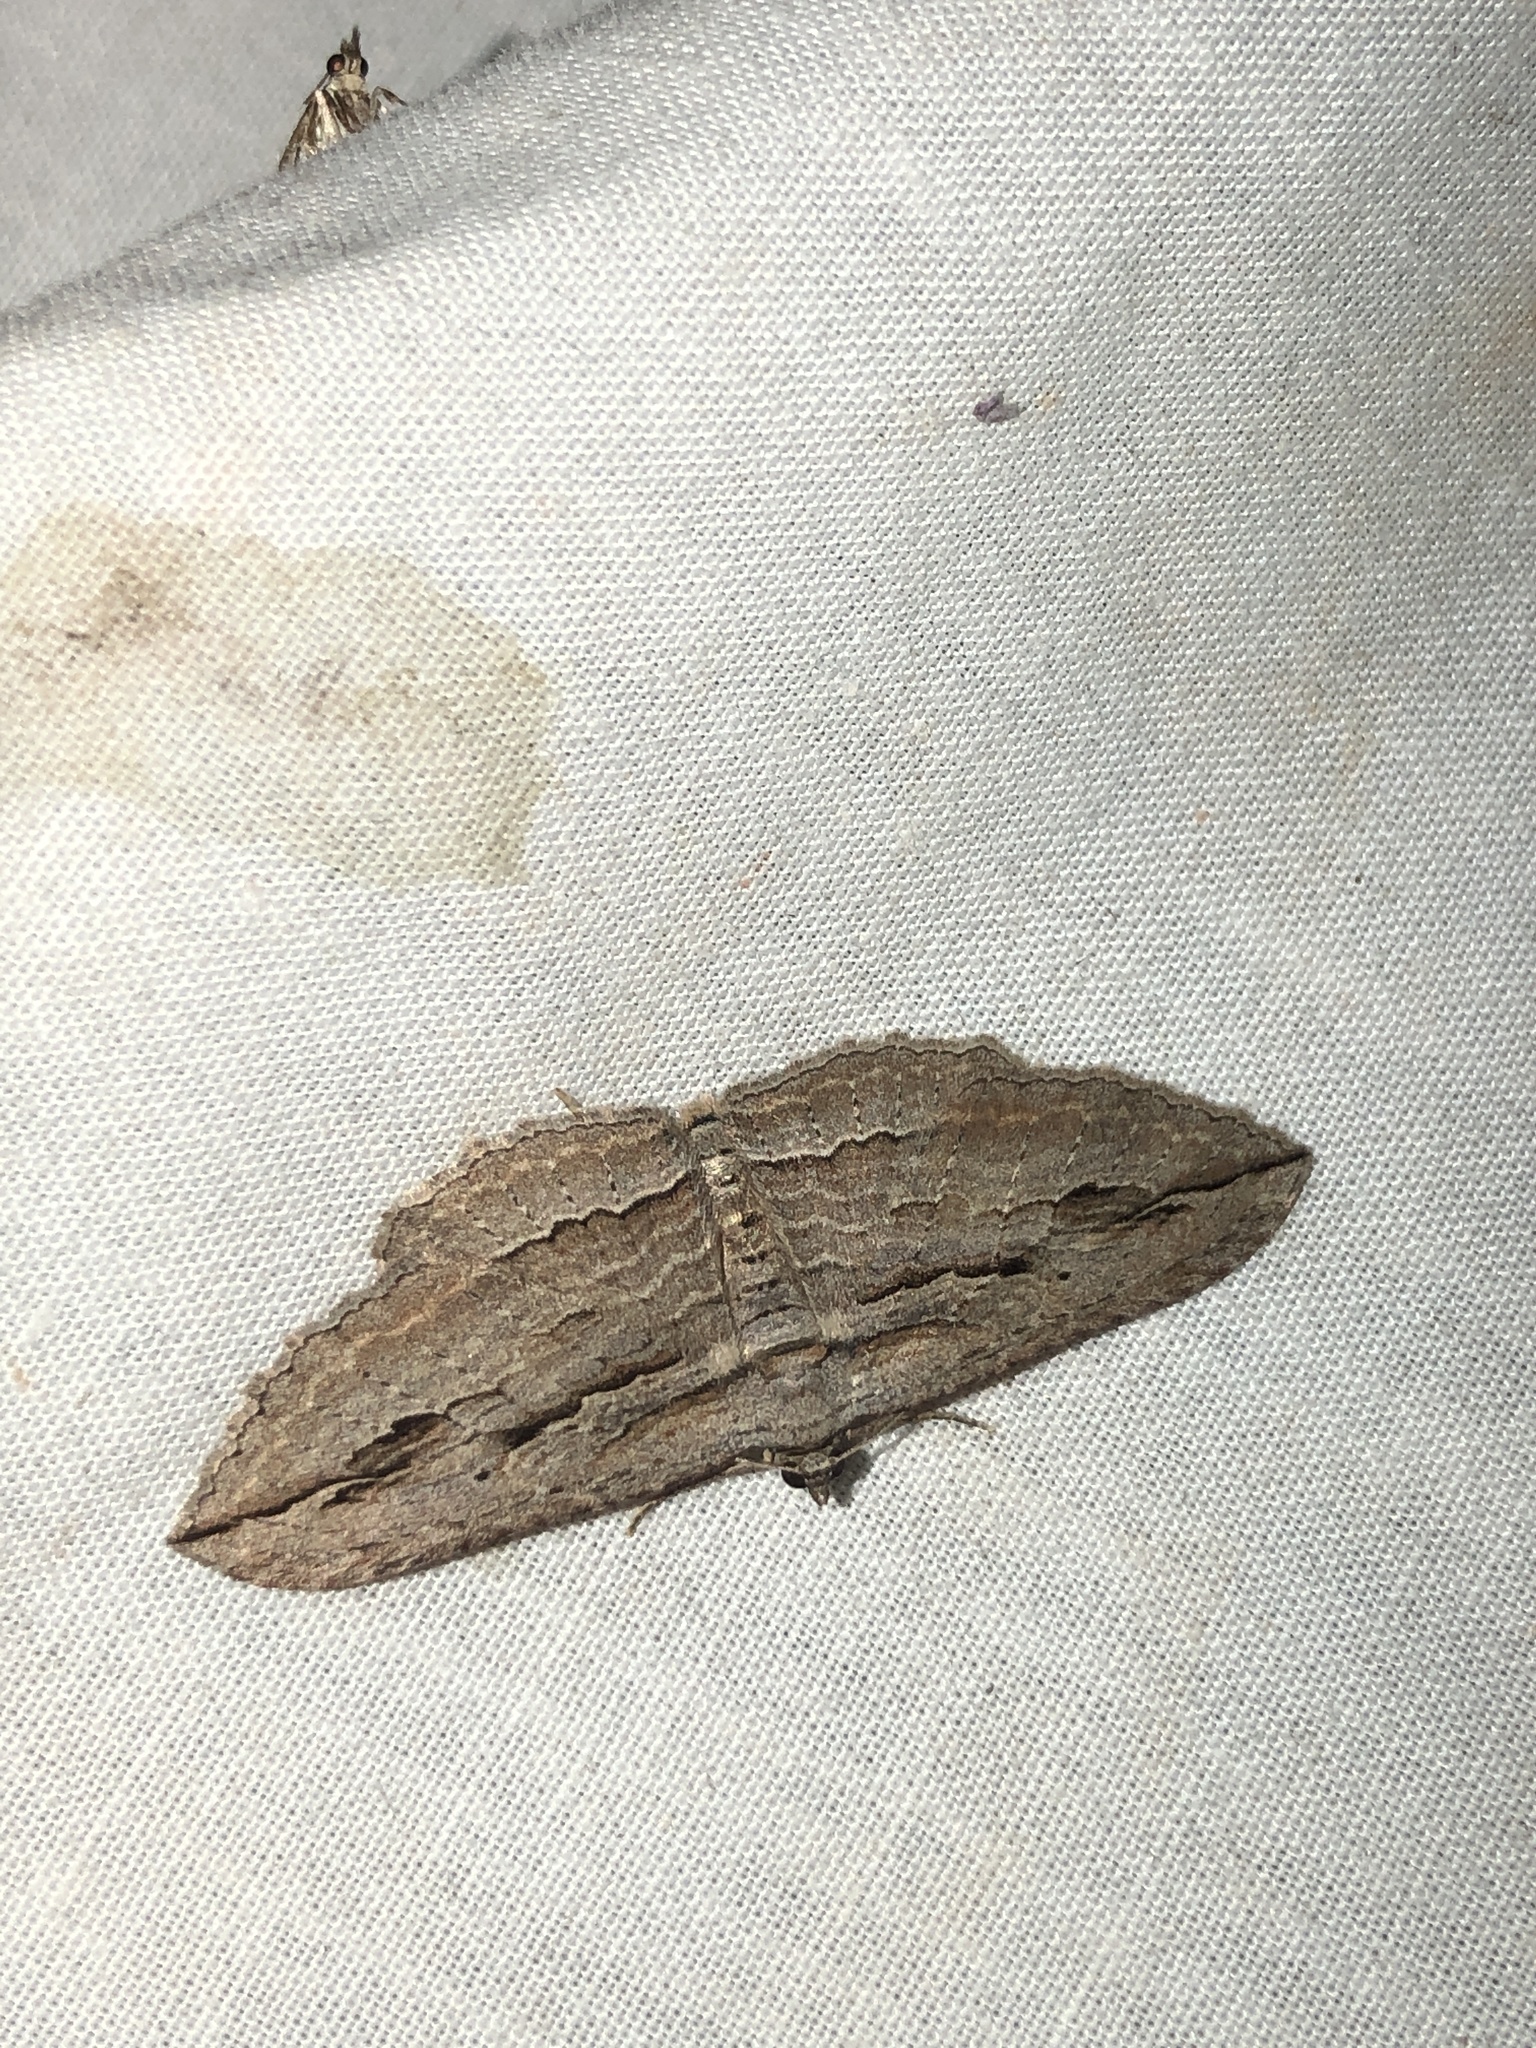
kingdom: Animalia
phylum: Arthropoda
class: Insecta
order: Lepidoptera
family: Geometridae
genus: Austrocidaria
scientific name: Austrocidaria gobiata
